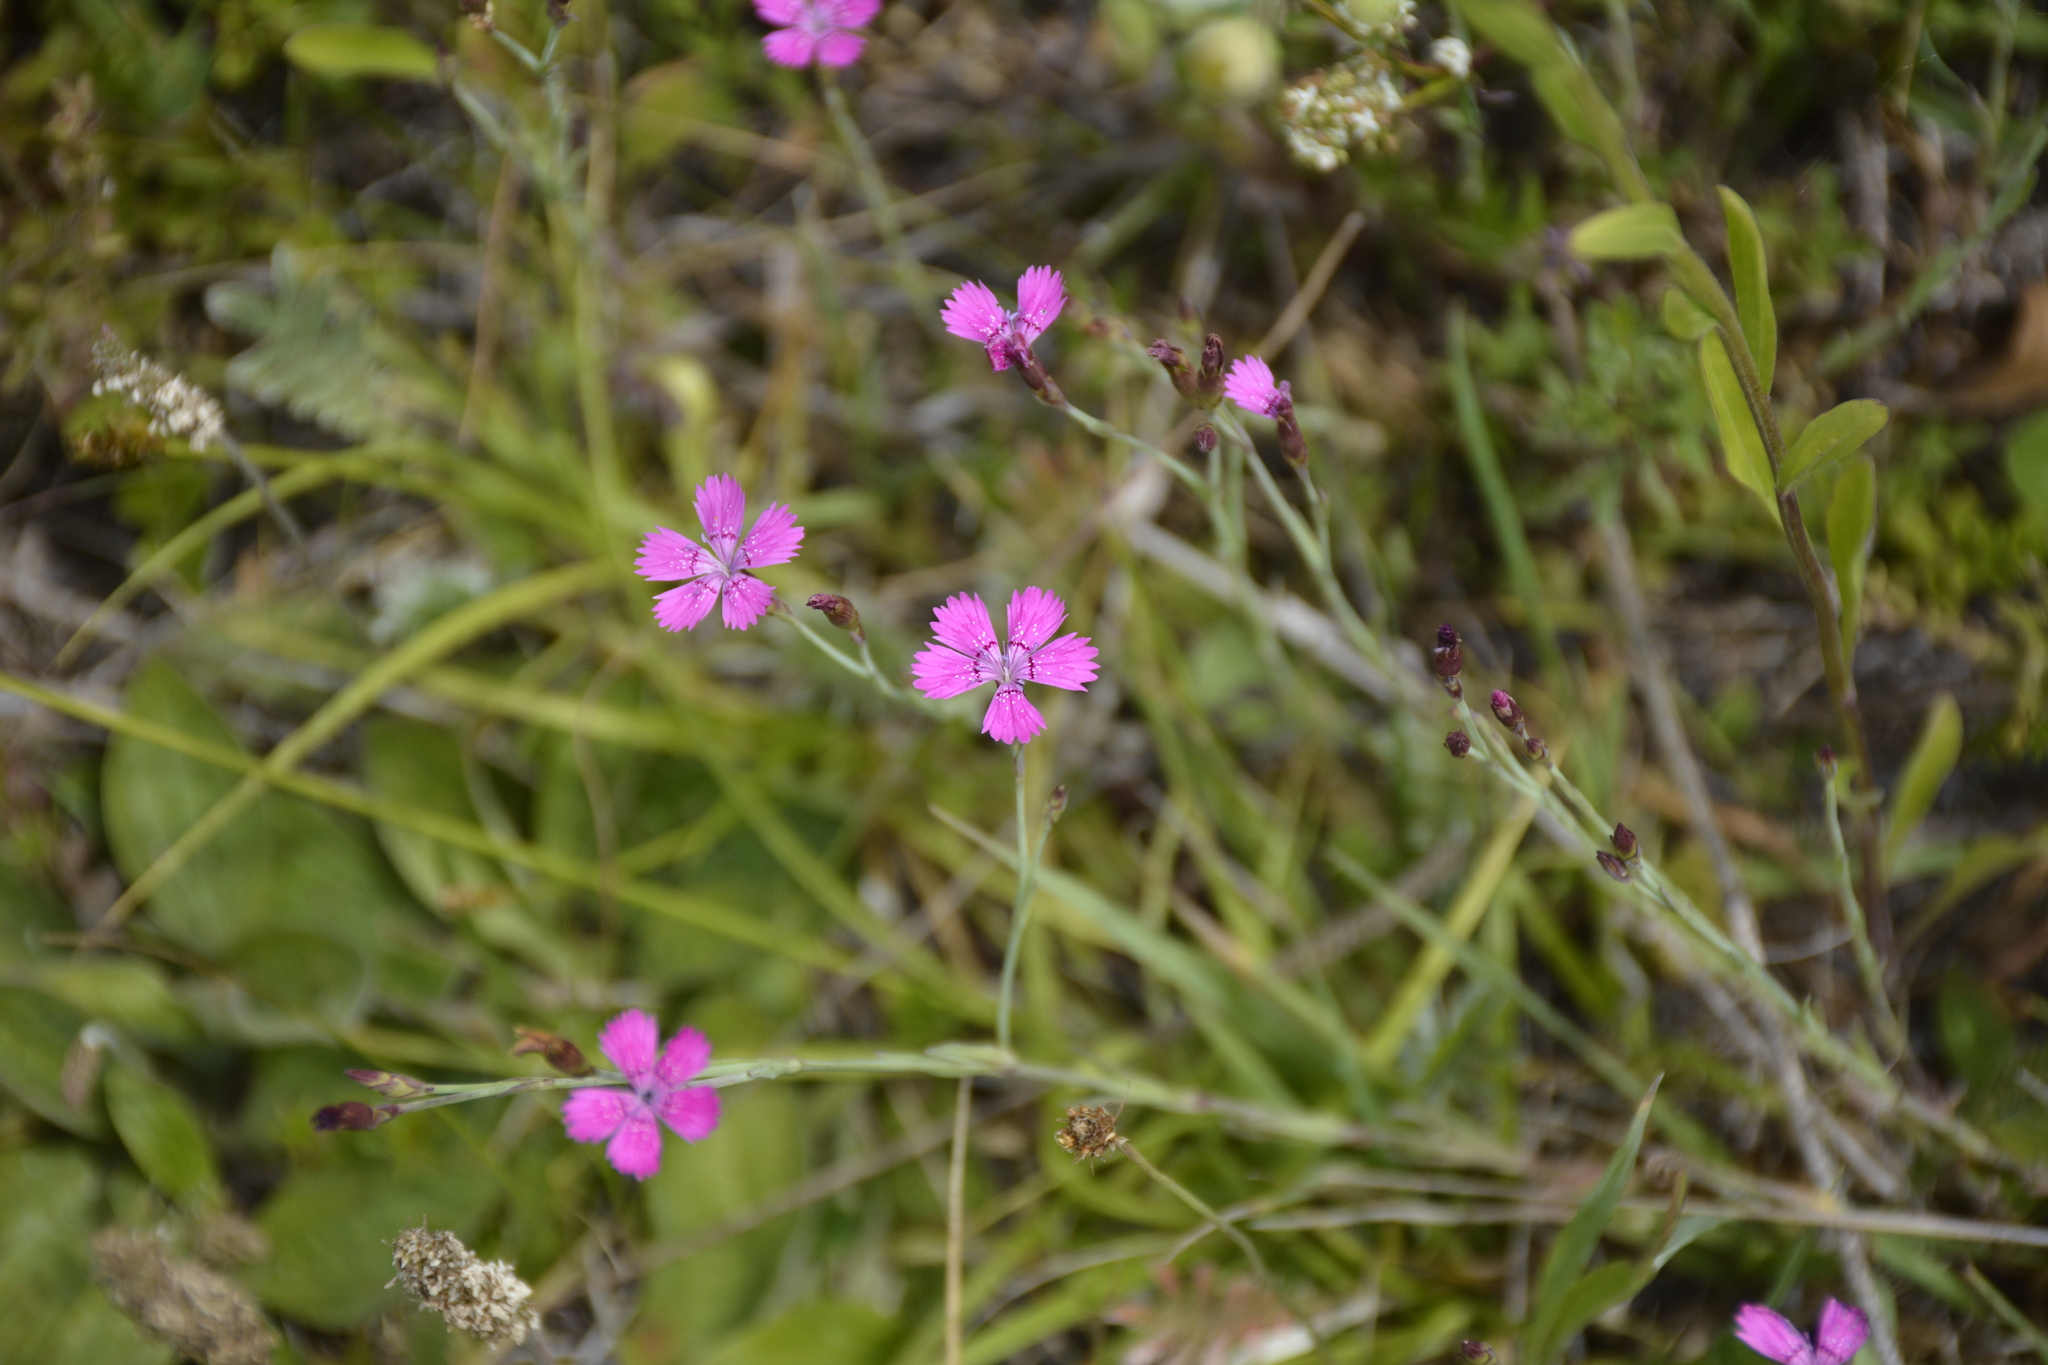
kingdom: Plantae
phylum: Tracheophyta
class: Magnoliopsida
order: Caryophyllales
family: Caryophyllaceae
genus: Dianthus
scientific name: Dianthus deltoides
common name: Maiden pink
